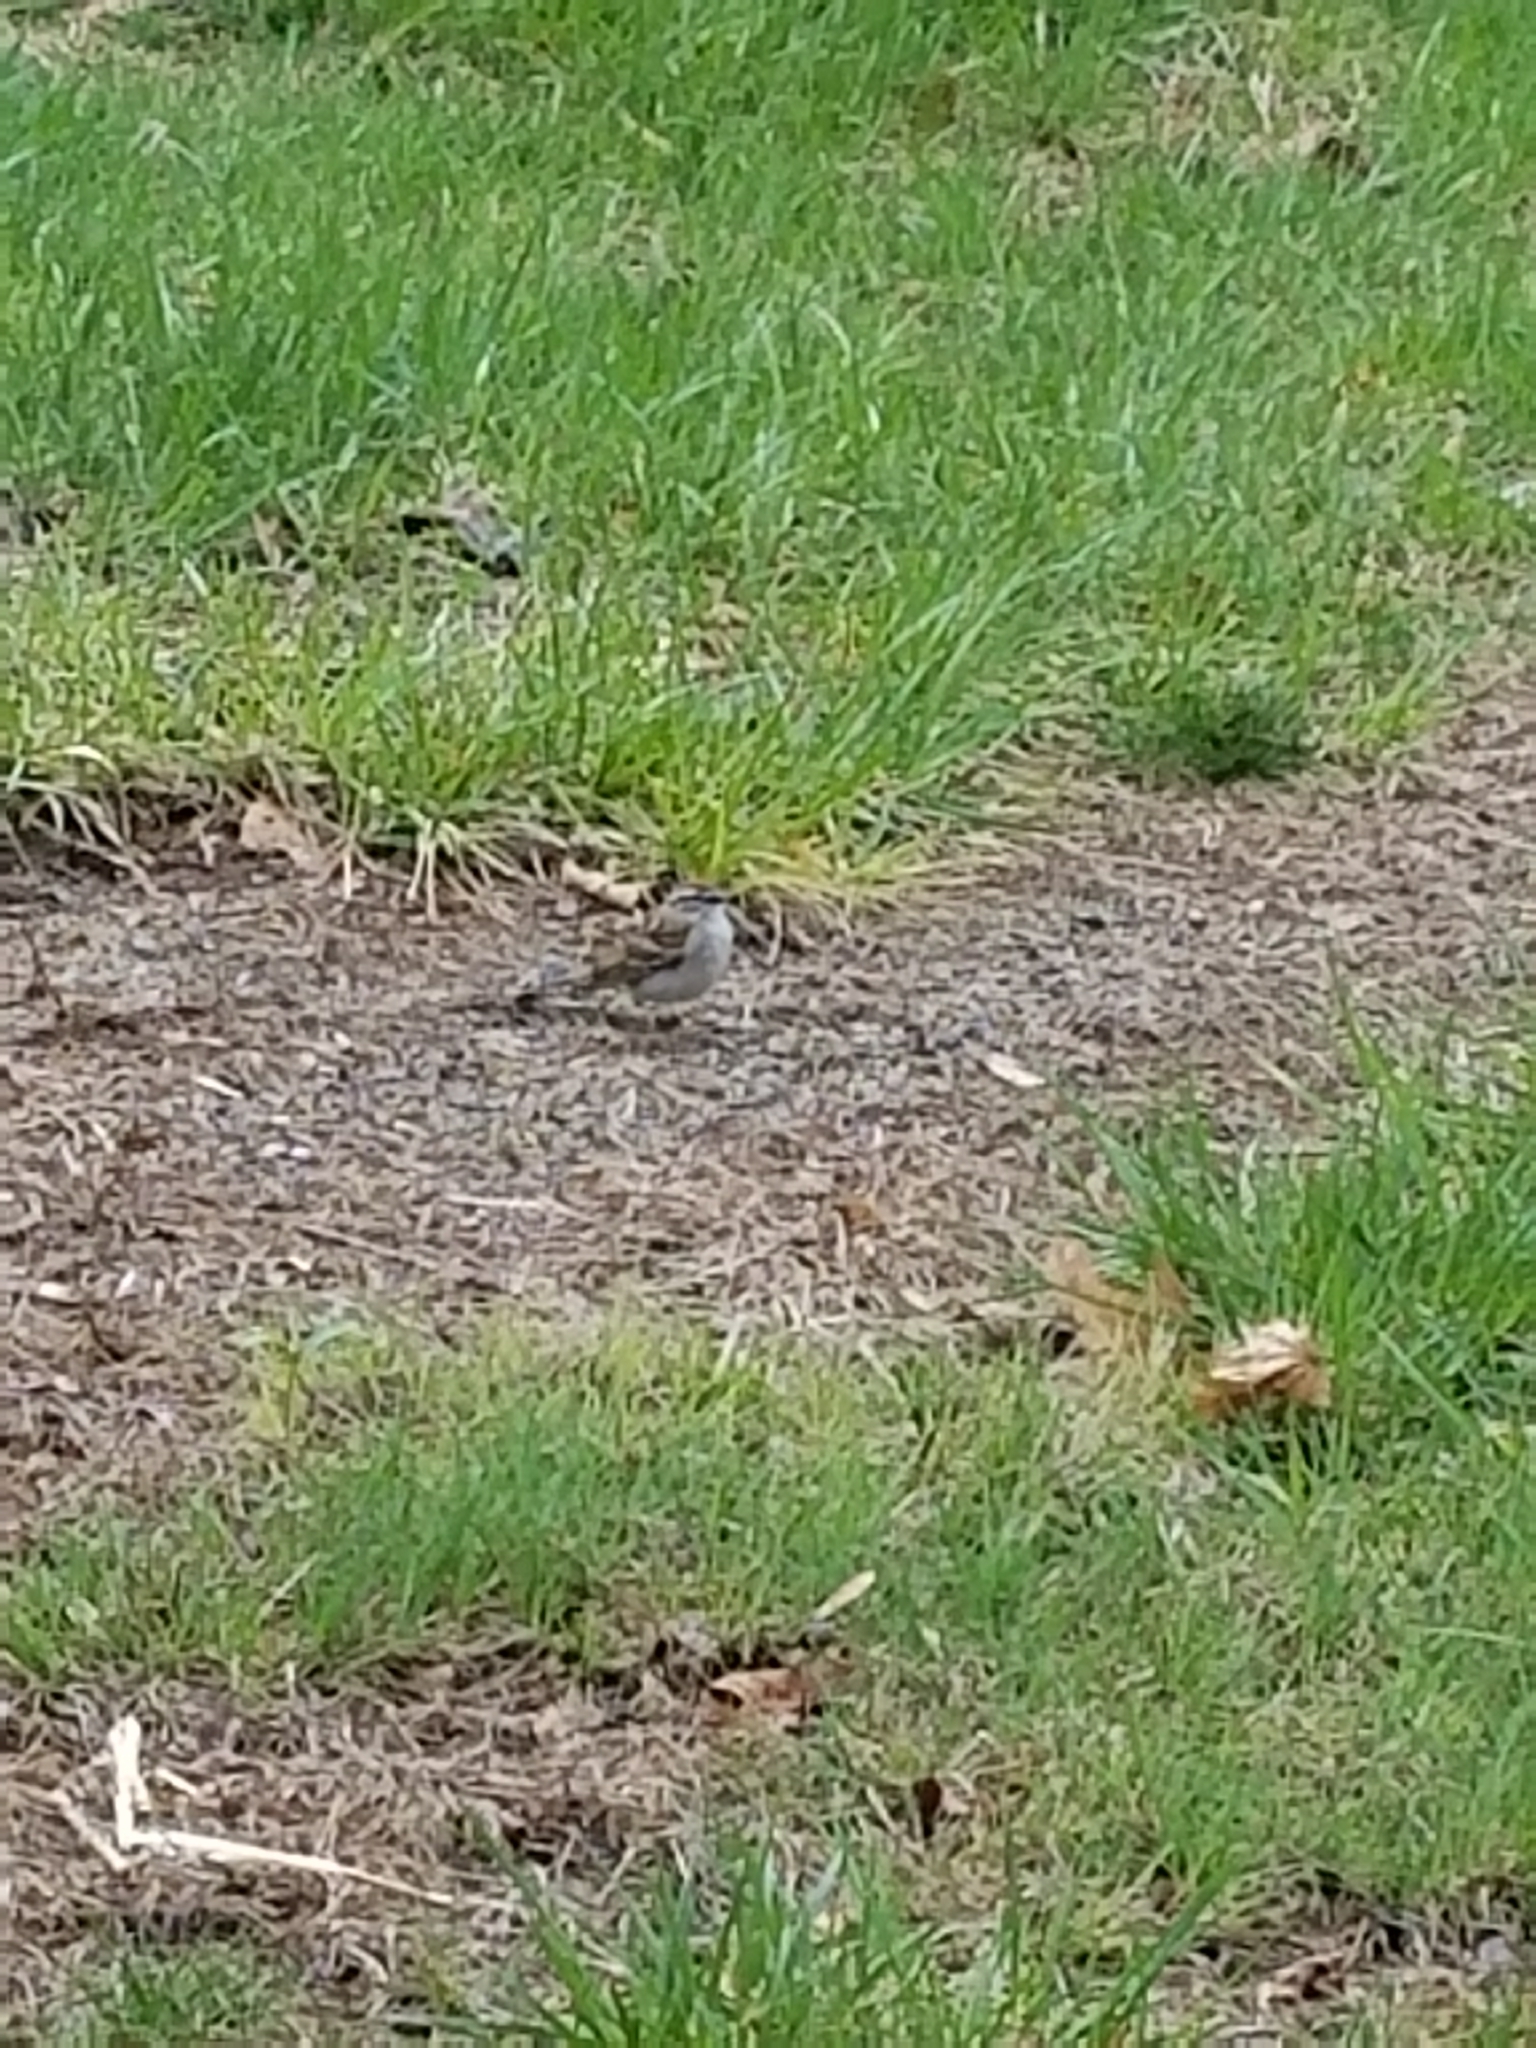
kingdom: Animalia
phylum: Chordata
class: Aves
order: Passeriformes
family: Passerellidae
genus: Spizella
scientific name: Spizella passerina
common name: Chipping sparrow
